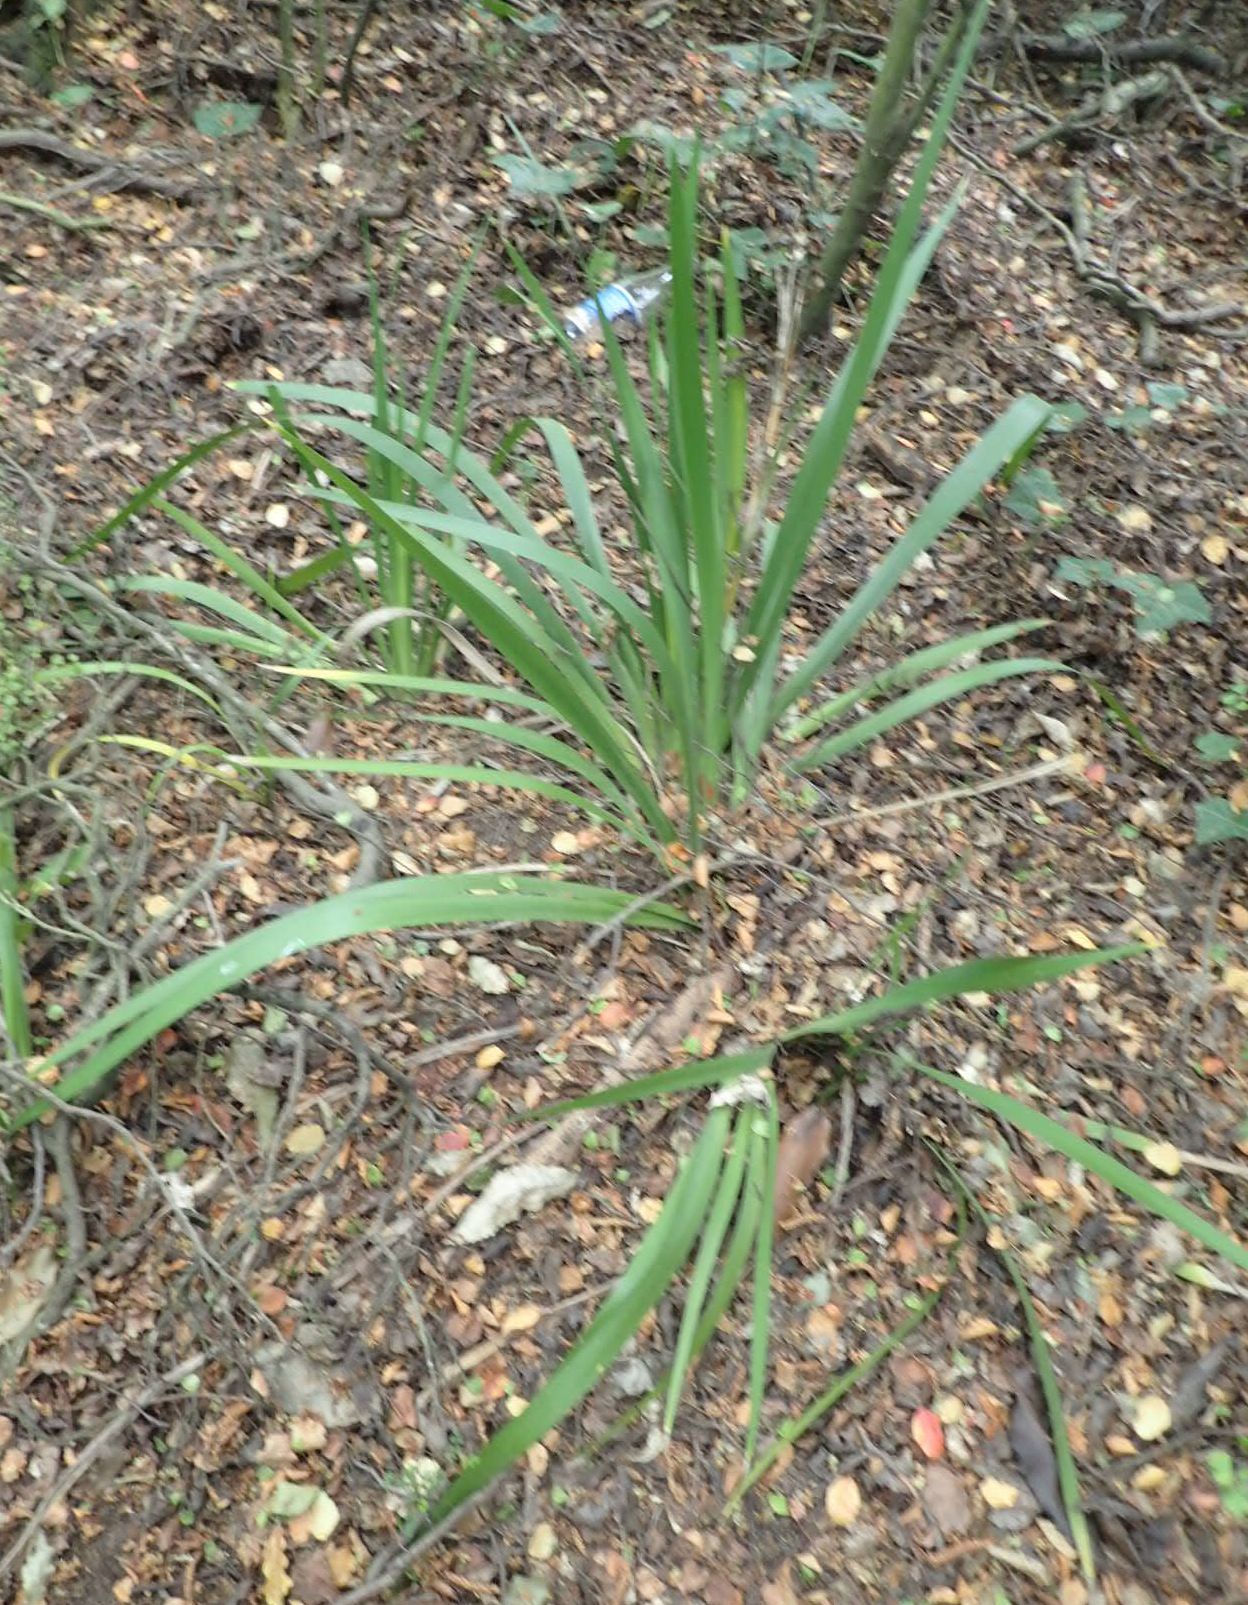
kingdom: Plantae
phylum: Tracheophyta
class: Liliopsida
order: Asparagales
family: Iridaceae
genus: Iris
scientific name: Iris foetidissima
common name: Stinking iris
